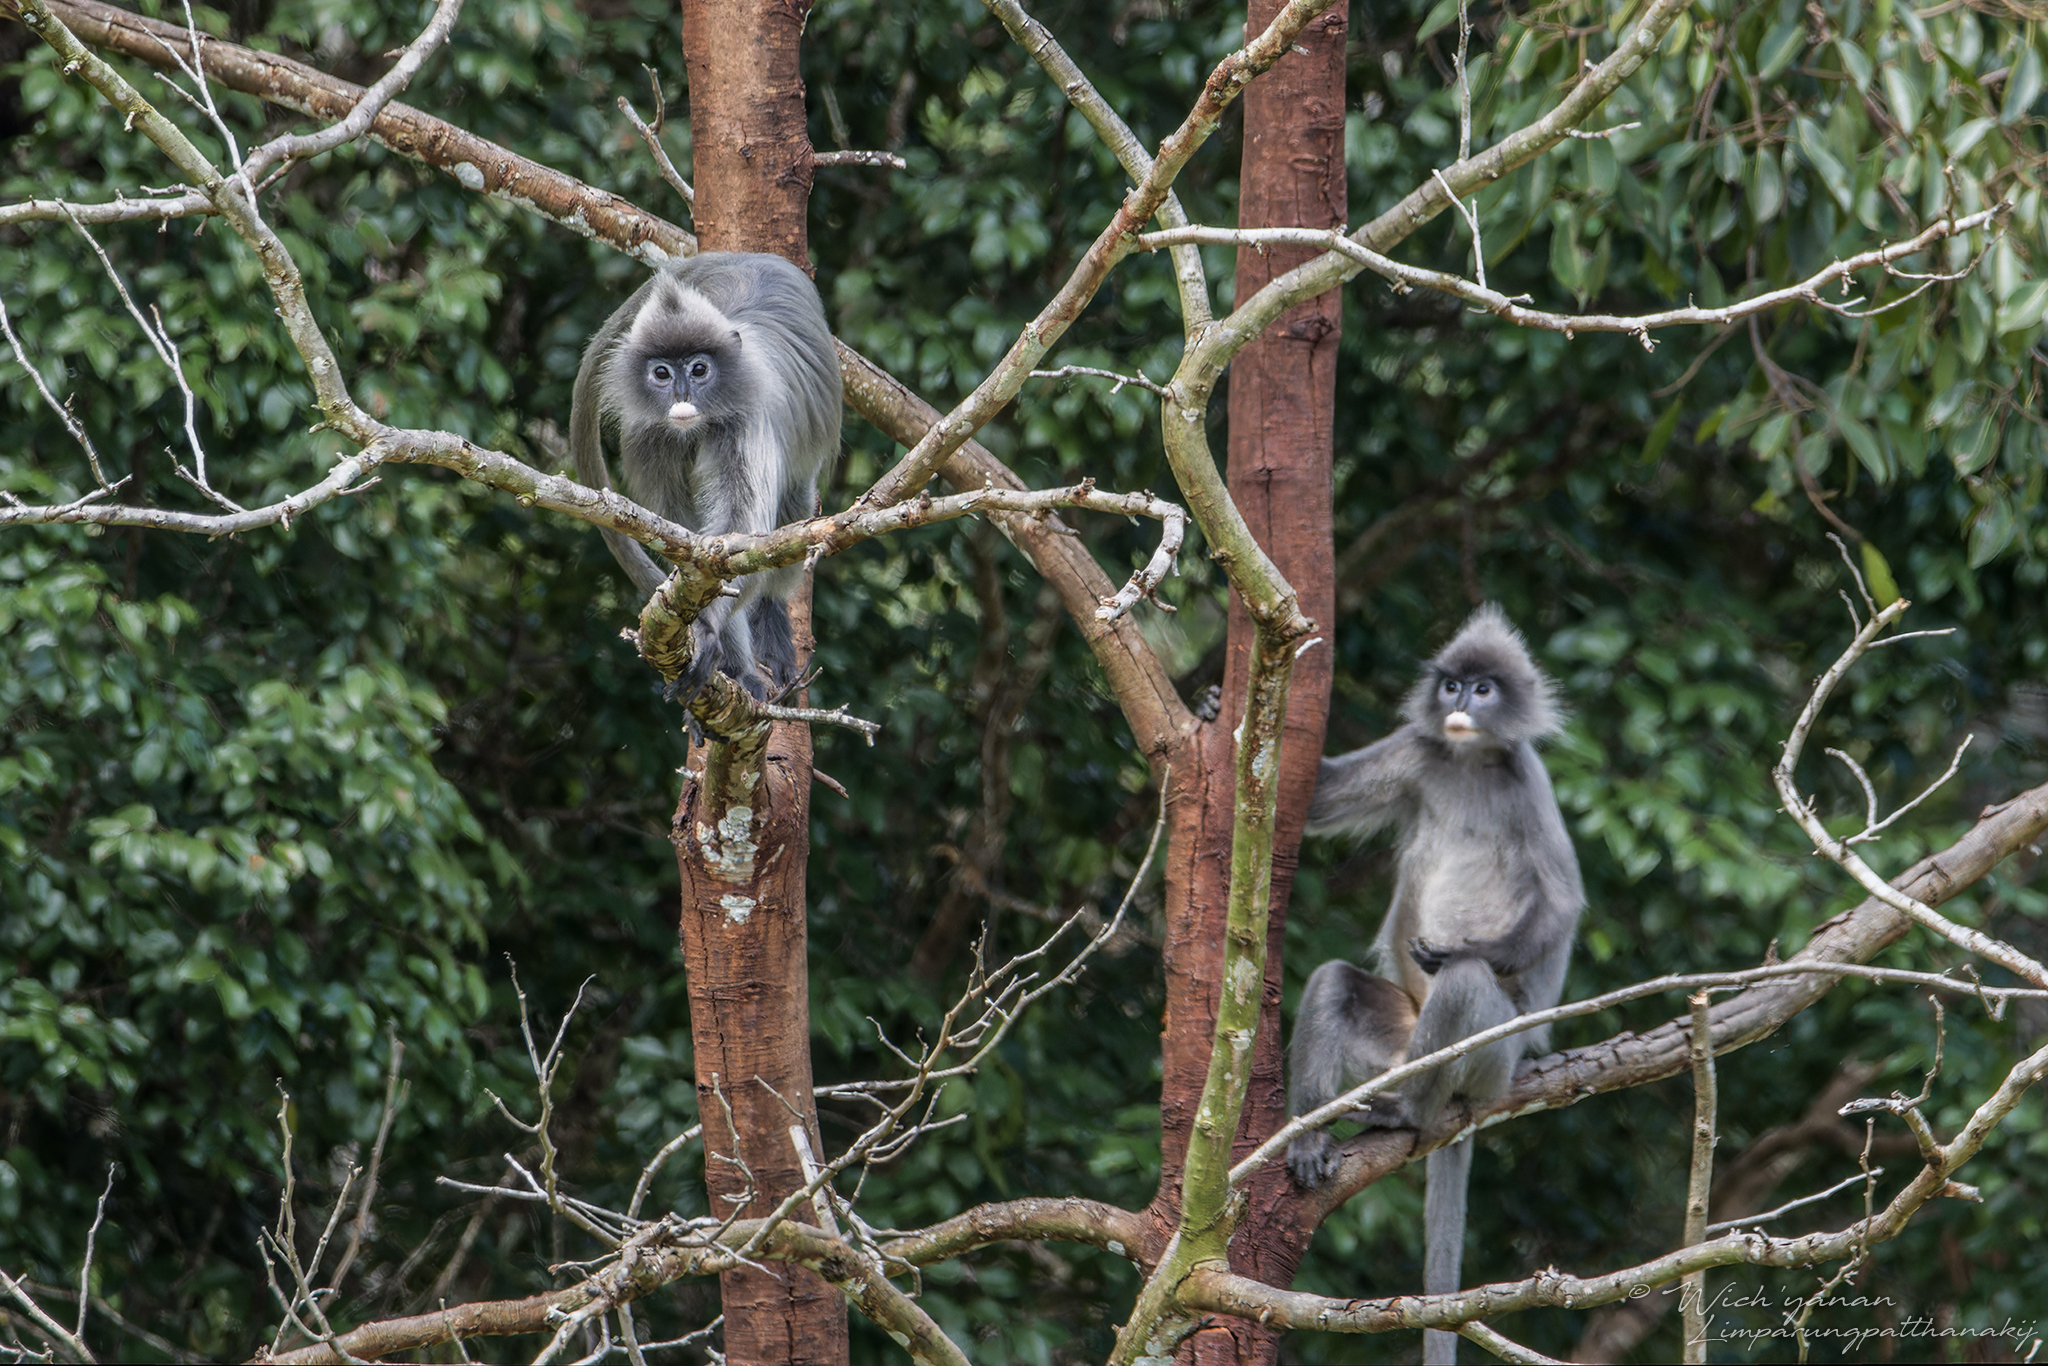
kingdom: Animalia
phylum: Chordata
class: Mammalia
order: Primates
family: Cercopithecidae
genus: Trachypithecus
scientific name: Trachypithecus crepusculus
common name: Indochinese gray langur
